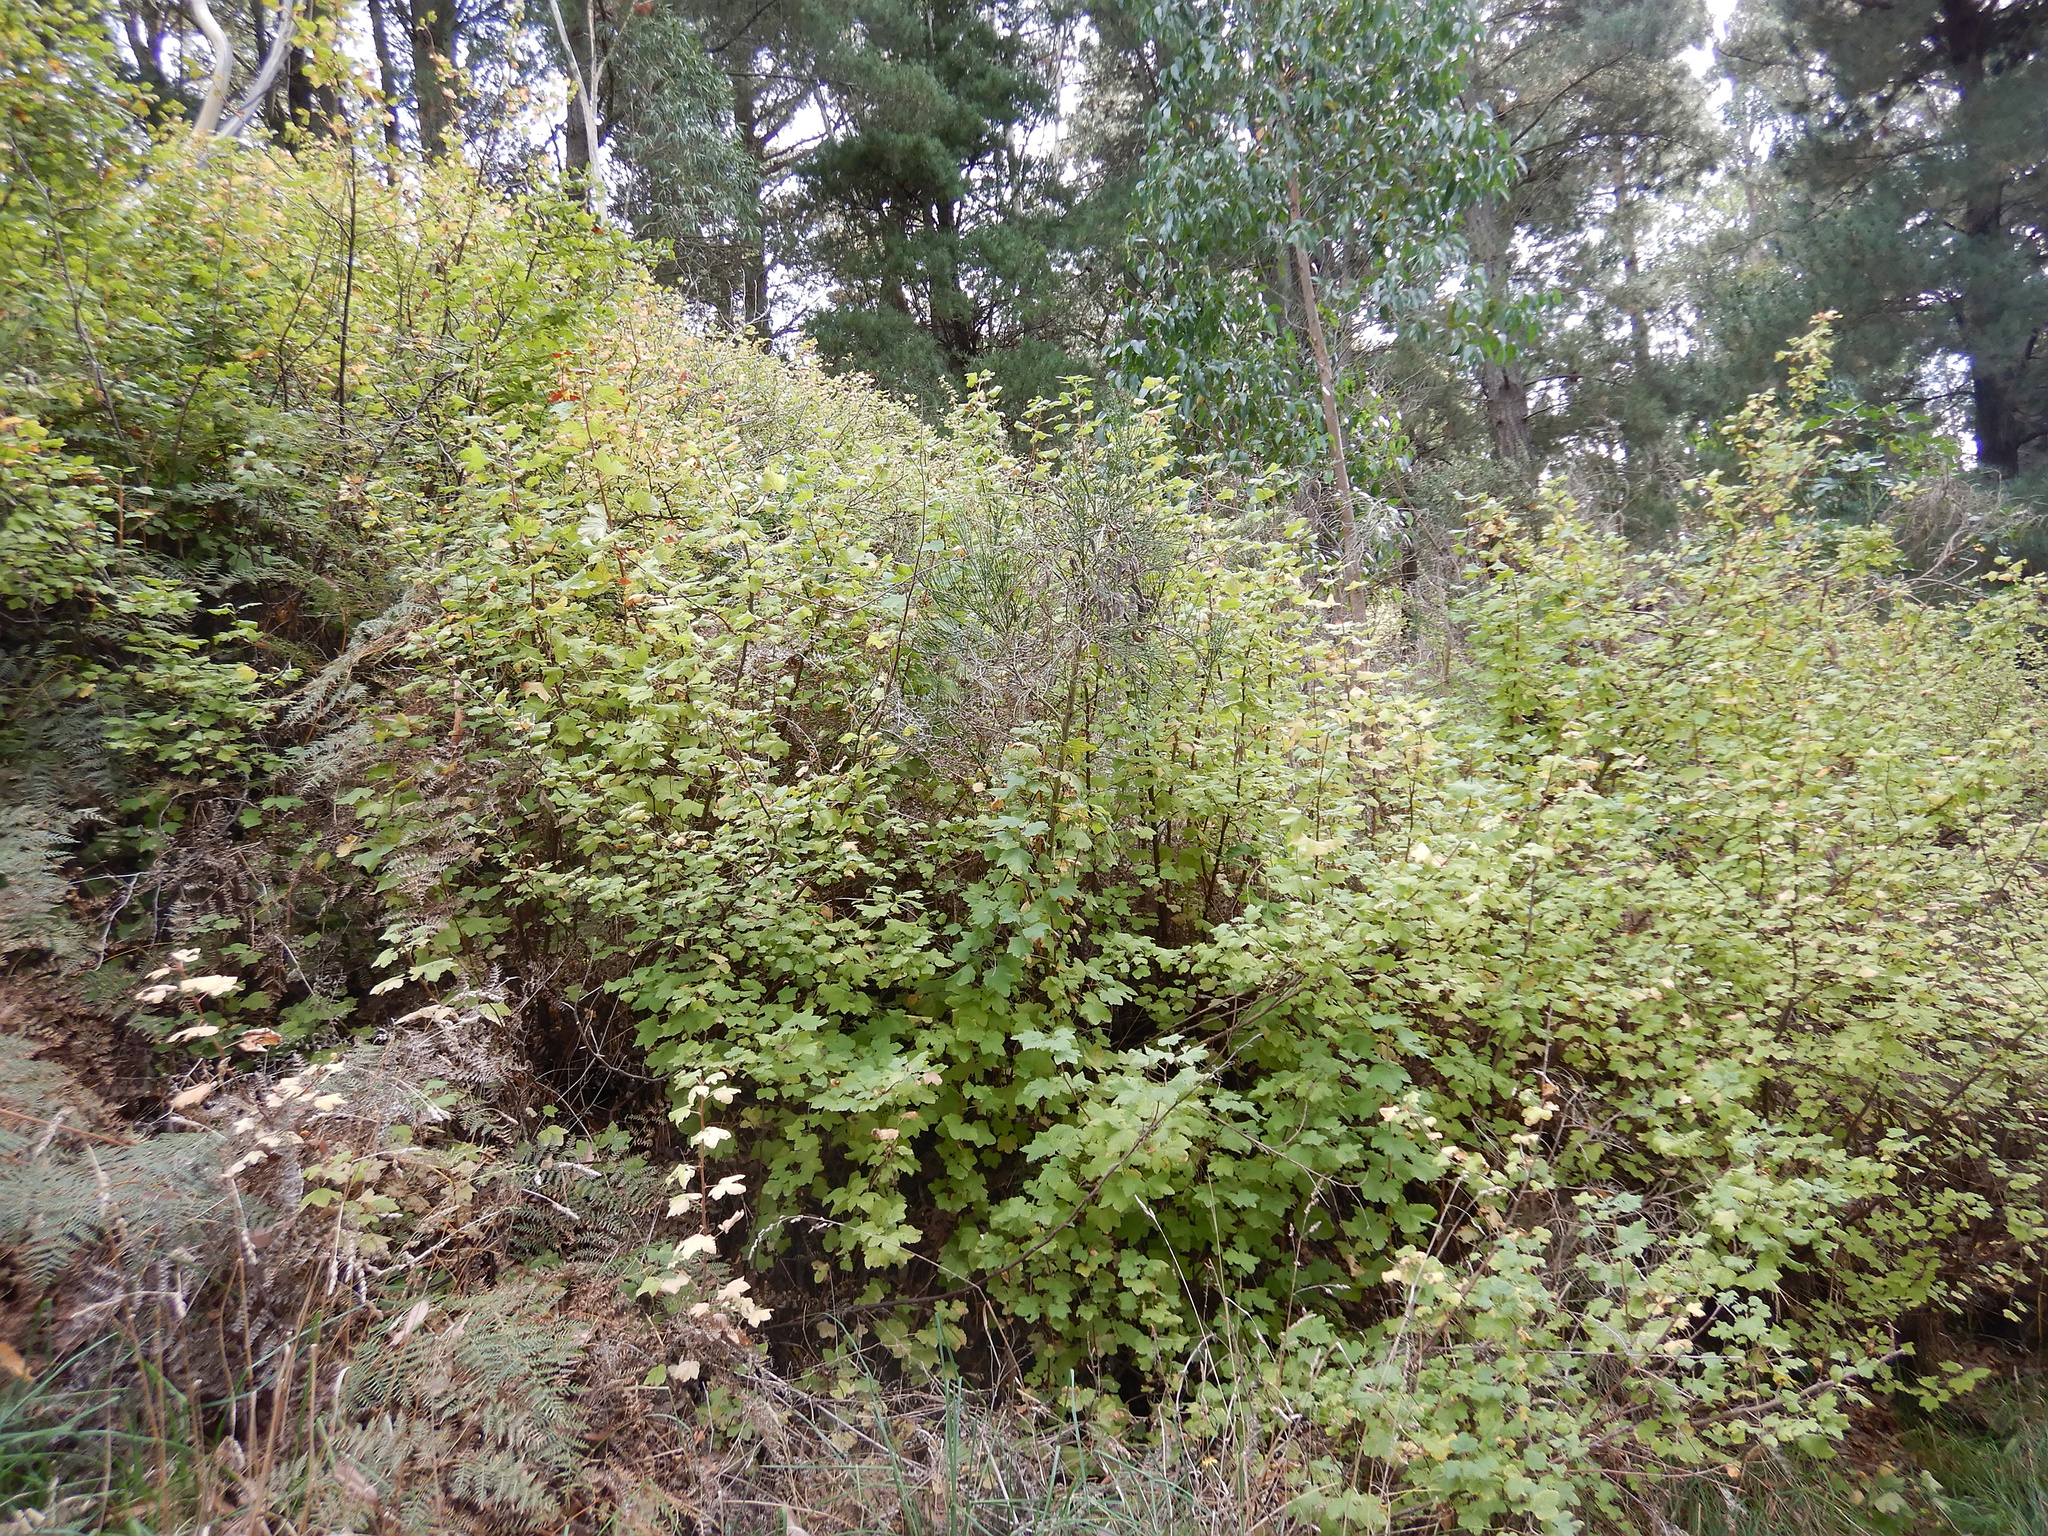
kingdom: Plantae
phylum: Tracheophyta
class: Magnoliopsida
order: Saxifragales
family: Grossulariaceae
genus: Ribes
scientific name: Ribes sanguineum
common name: Flowering currant
